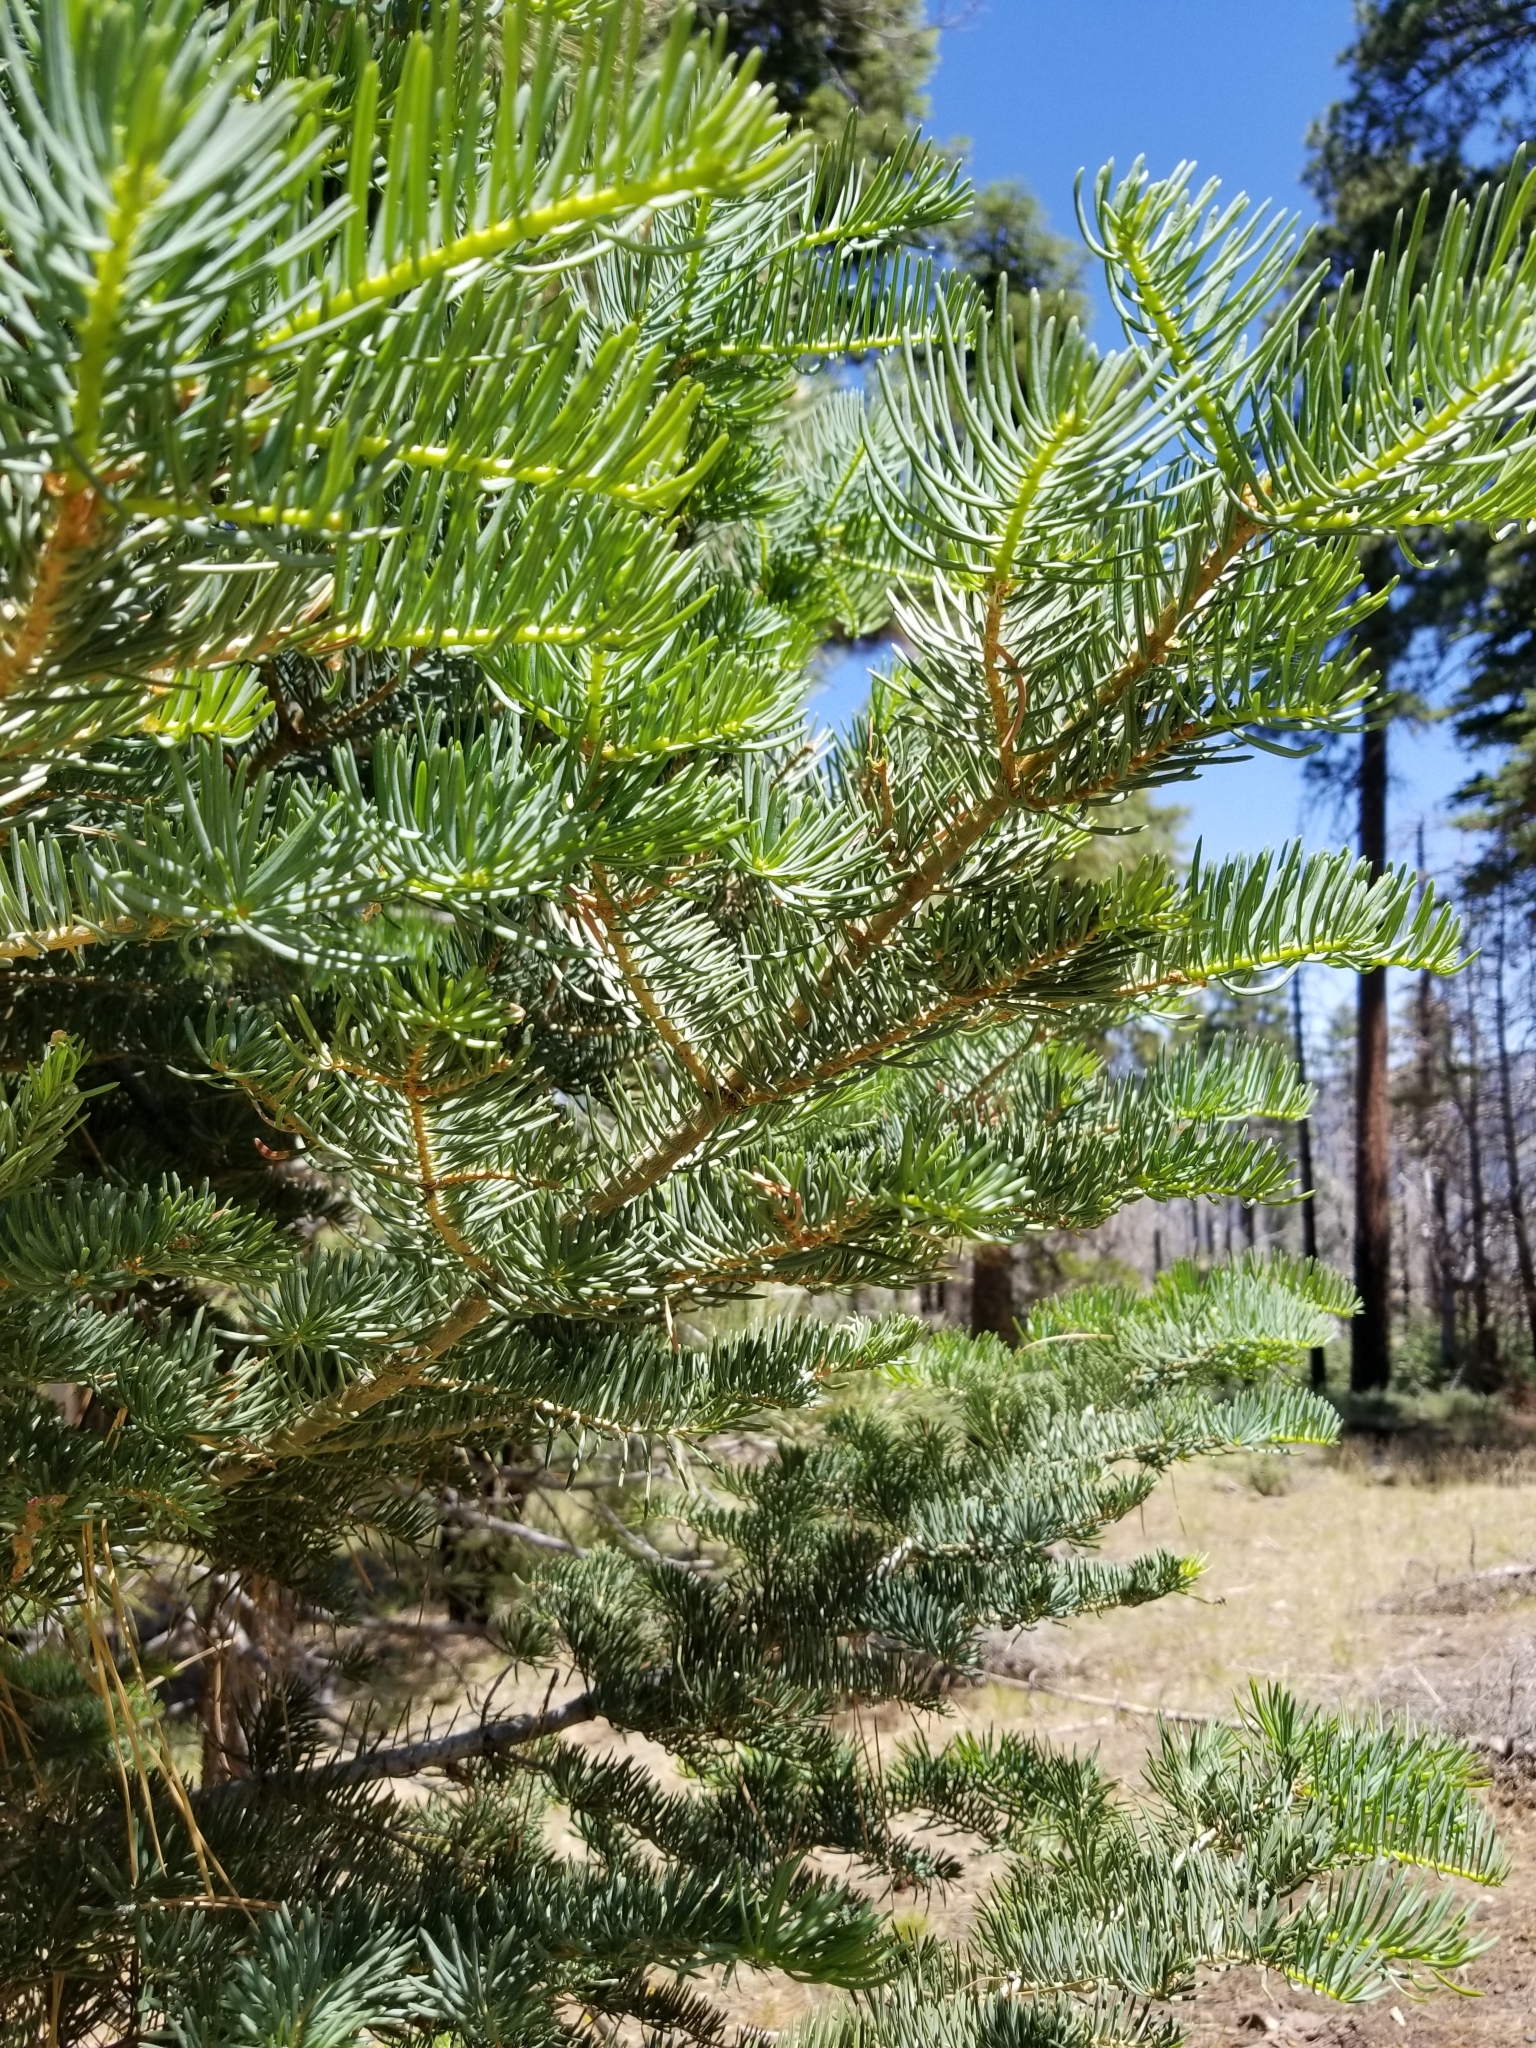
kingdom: Plantae
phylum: Tracheophyta
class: Pinopsida
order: Pinales
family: Pinaceae
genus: Abies
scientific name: Abies concolor
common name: Colorado fir
